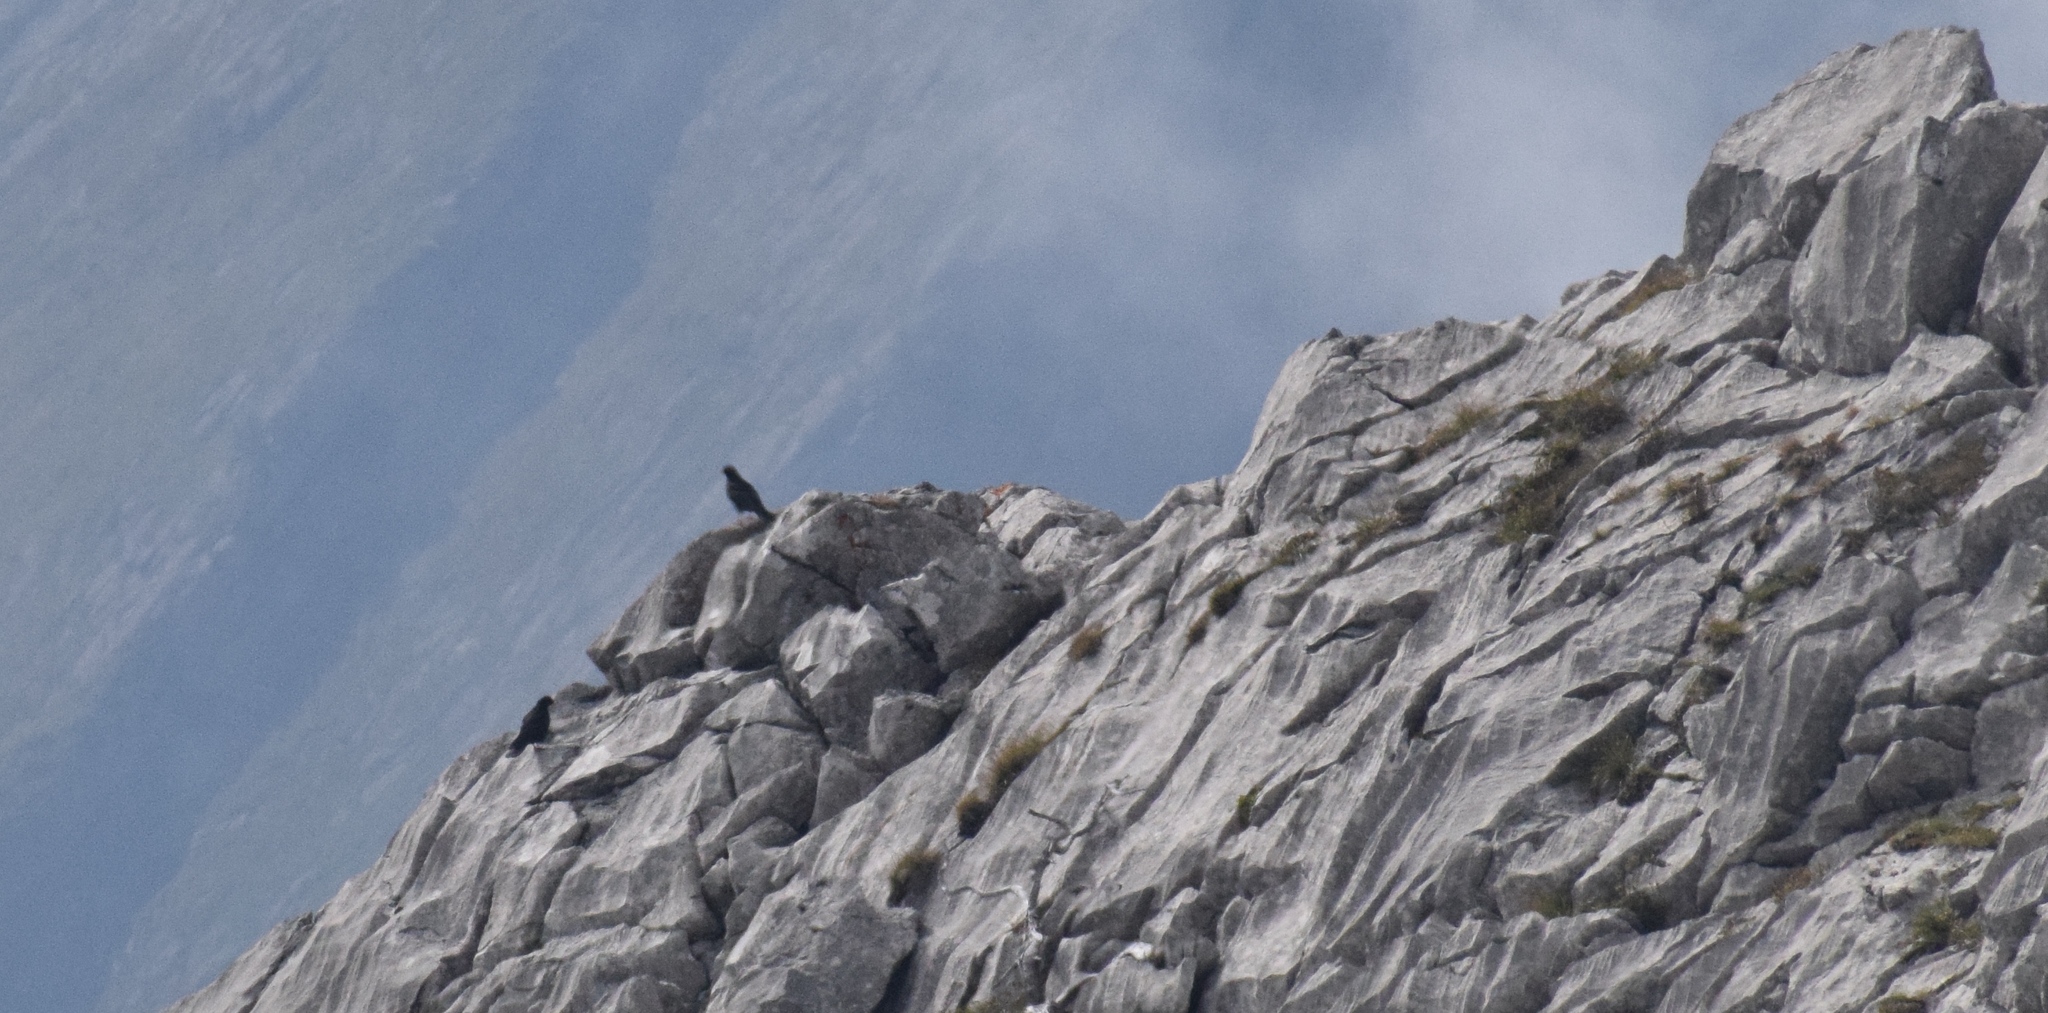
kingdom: Animalia
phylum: Chordata
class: Aves
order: Passeriformes
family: Corvidae
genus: Pyrrhocorax
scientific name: Pyrrhocorax graculus
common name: Alpine chough
